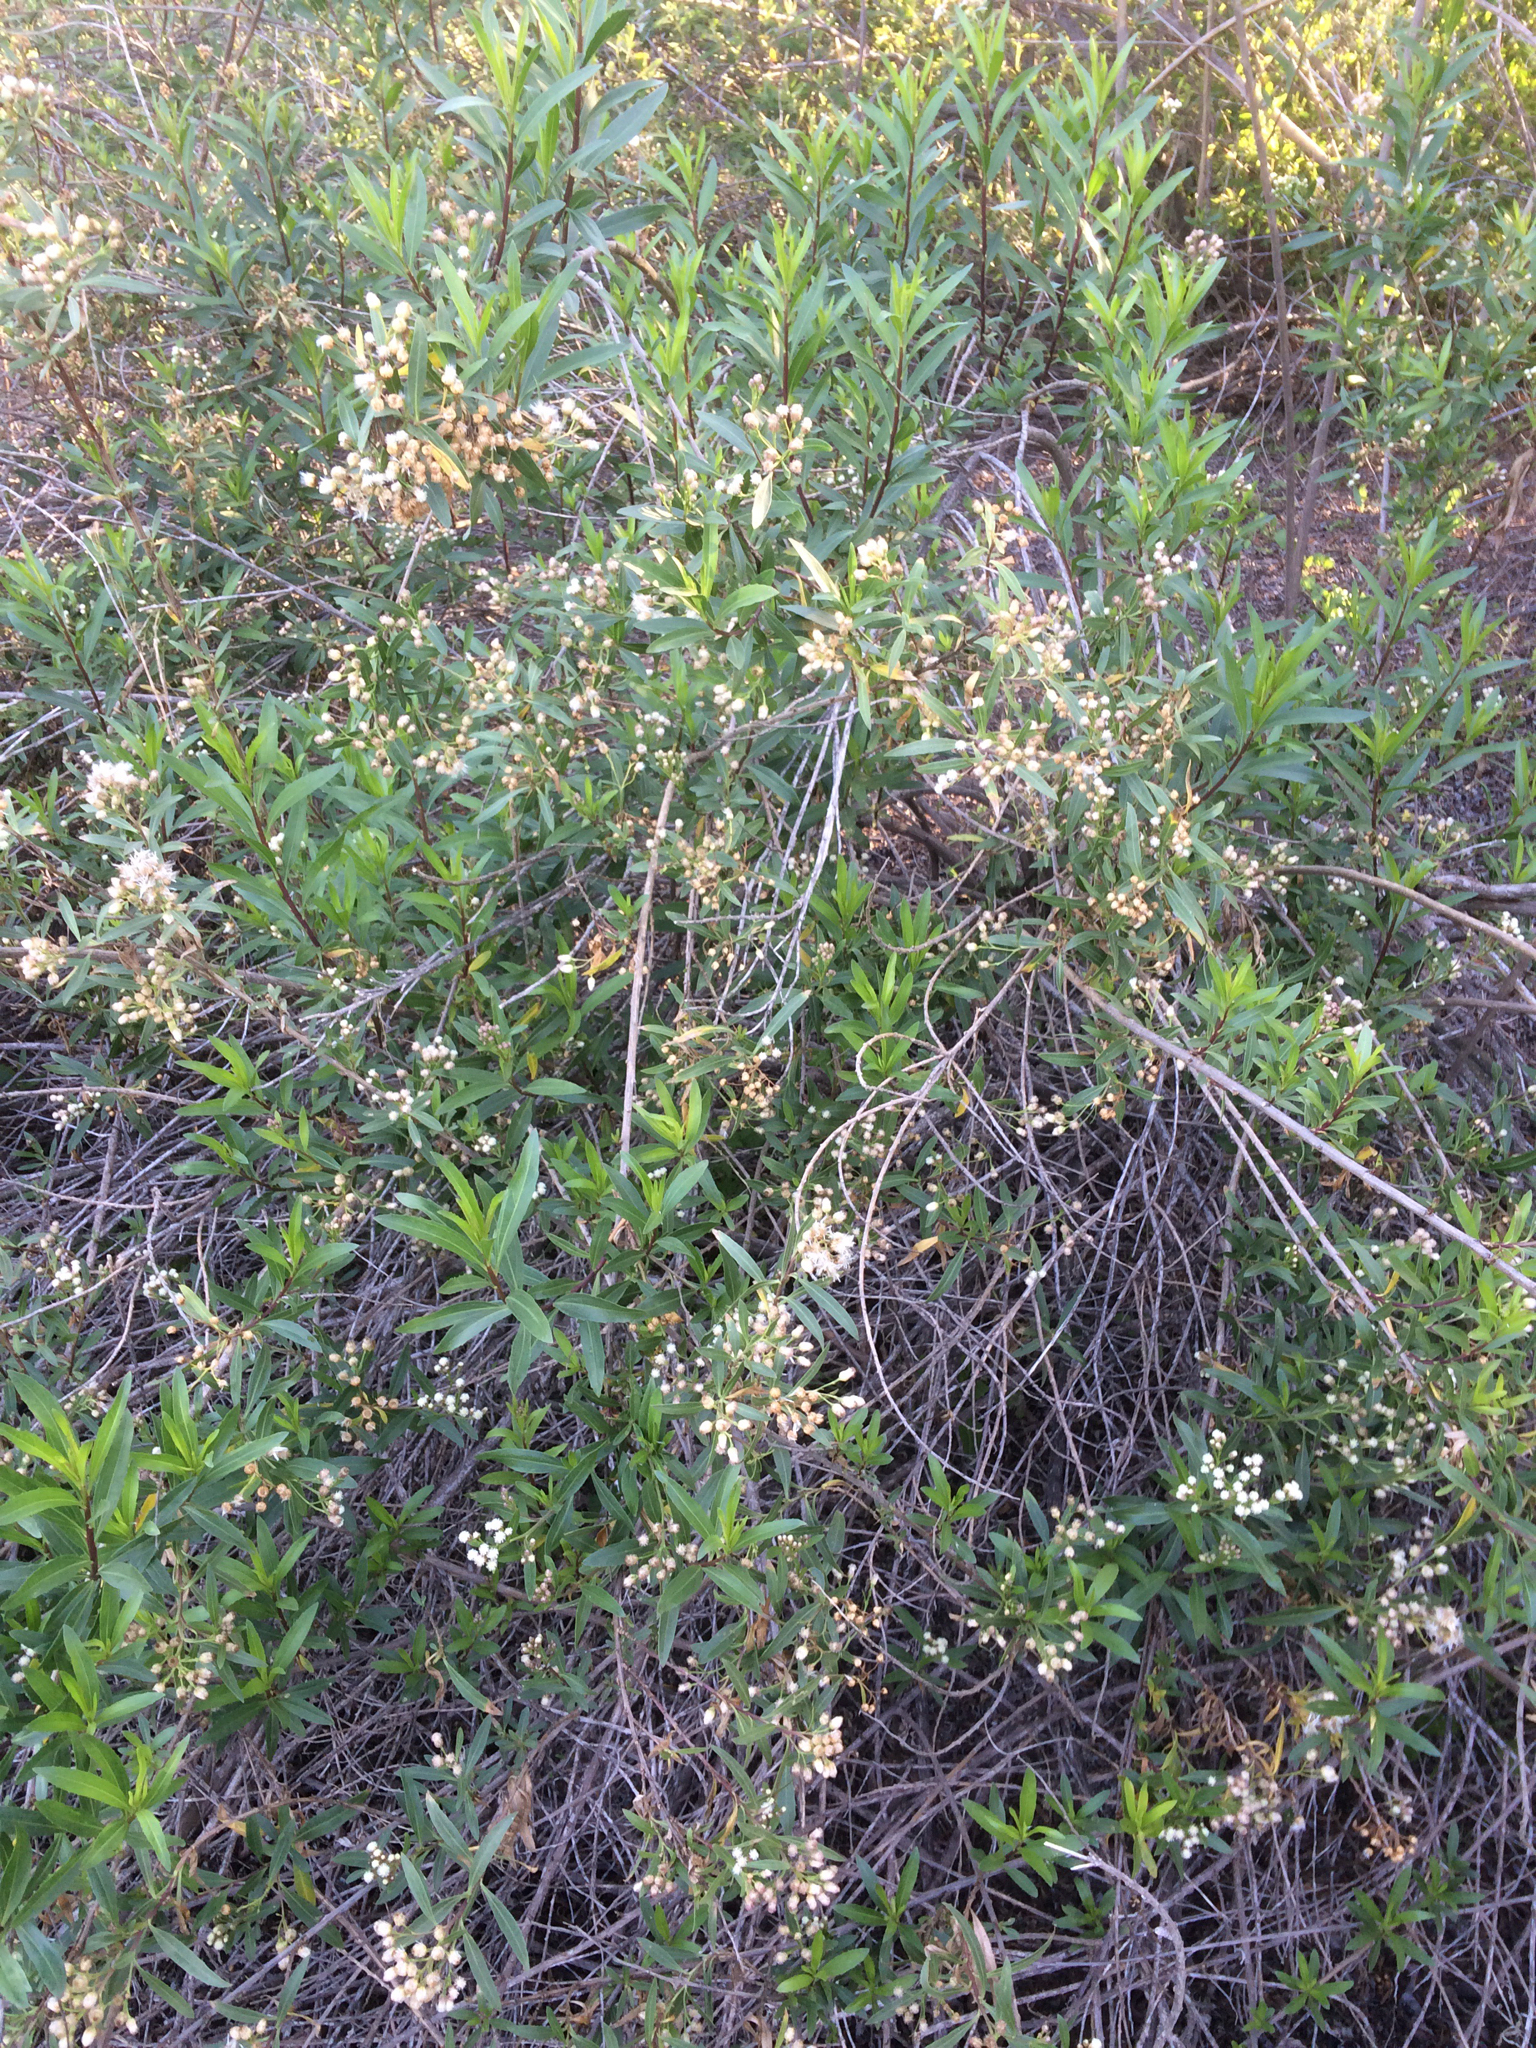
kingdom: Plantae
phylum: Tracheophyta
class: Magnoliopsida
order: Asterales
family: Asteraceae
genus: Baccharis
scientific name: Baccharis salicifolia
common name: Sticky baccharis
